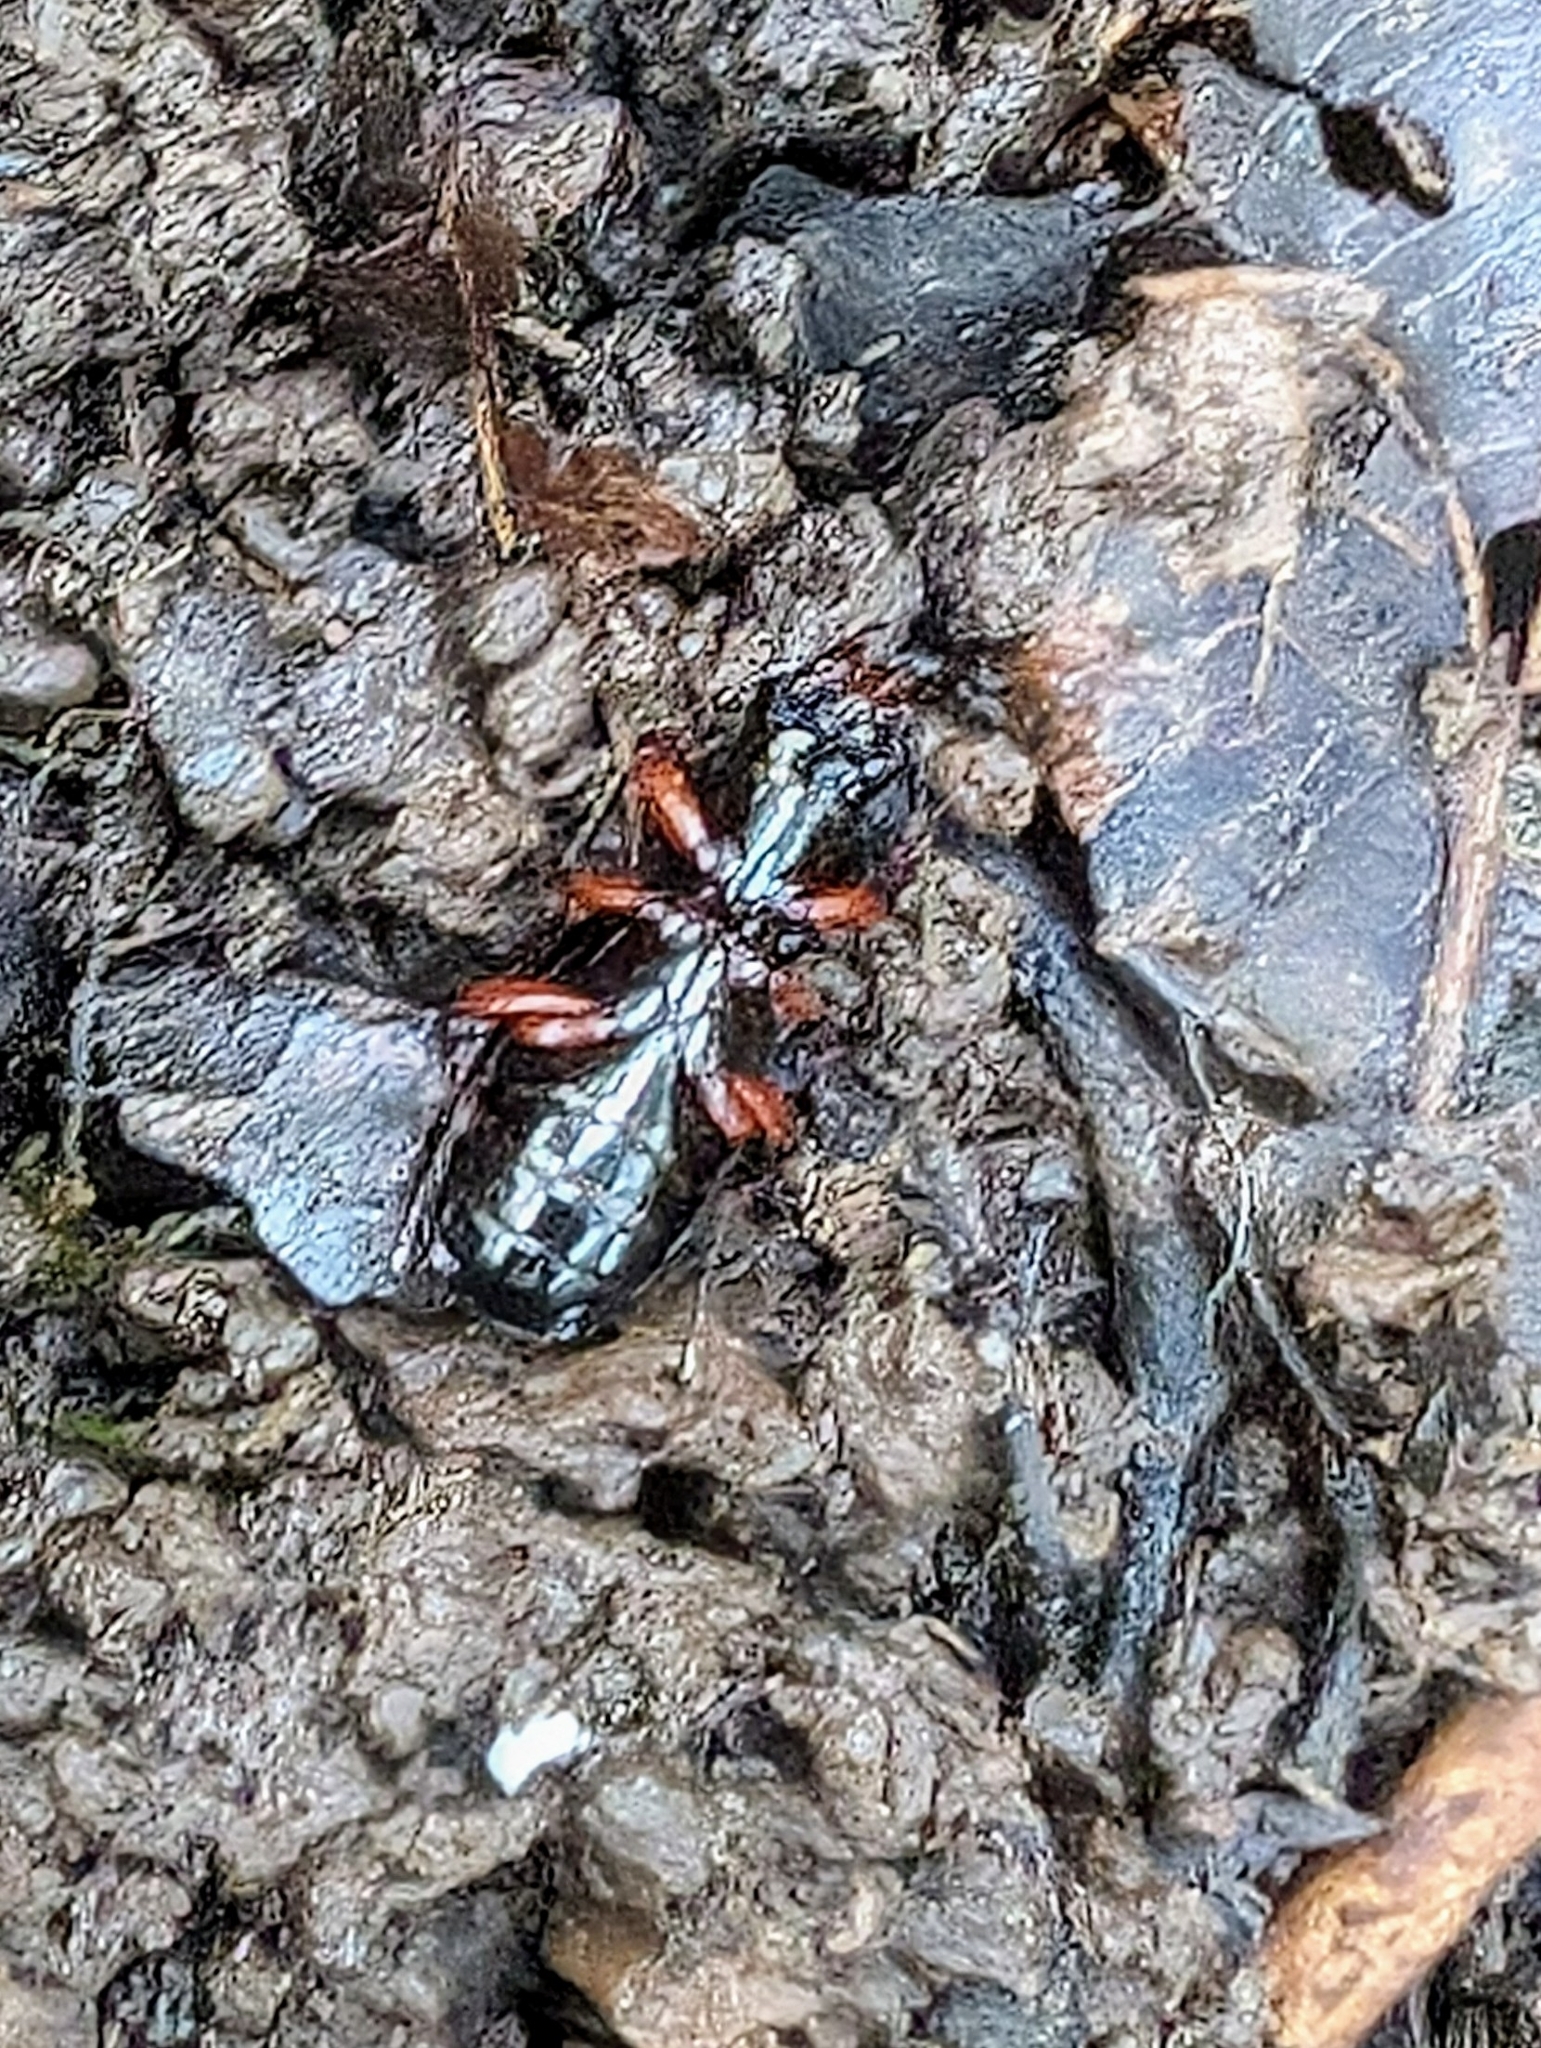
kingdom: Animalia
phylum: Arthropoda
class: Insecta
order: Coleoptera
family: Carabidae
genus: Pterostichus
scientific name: Pterostichus madidus
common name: Black clock
